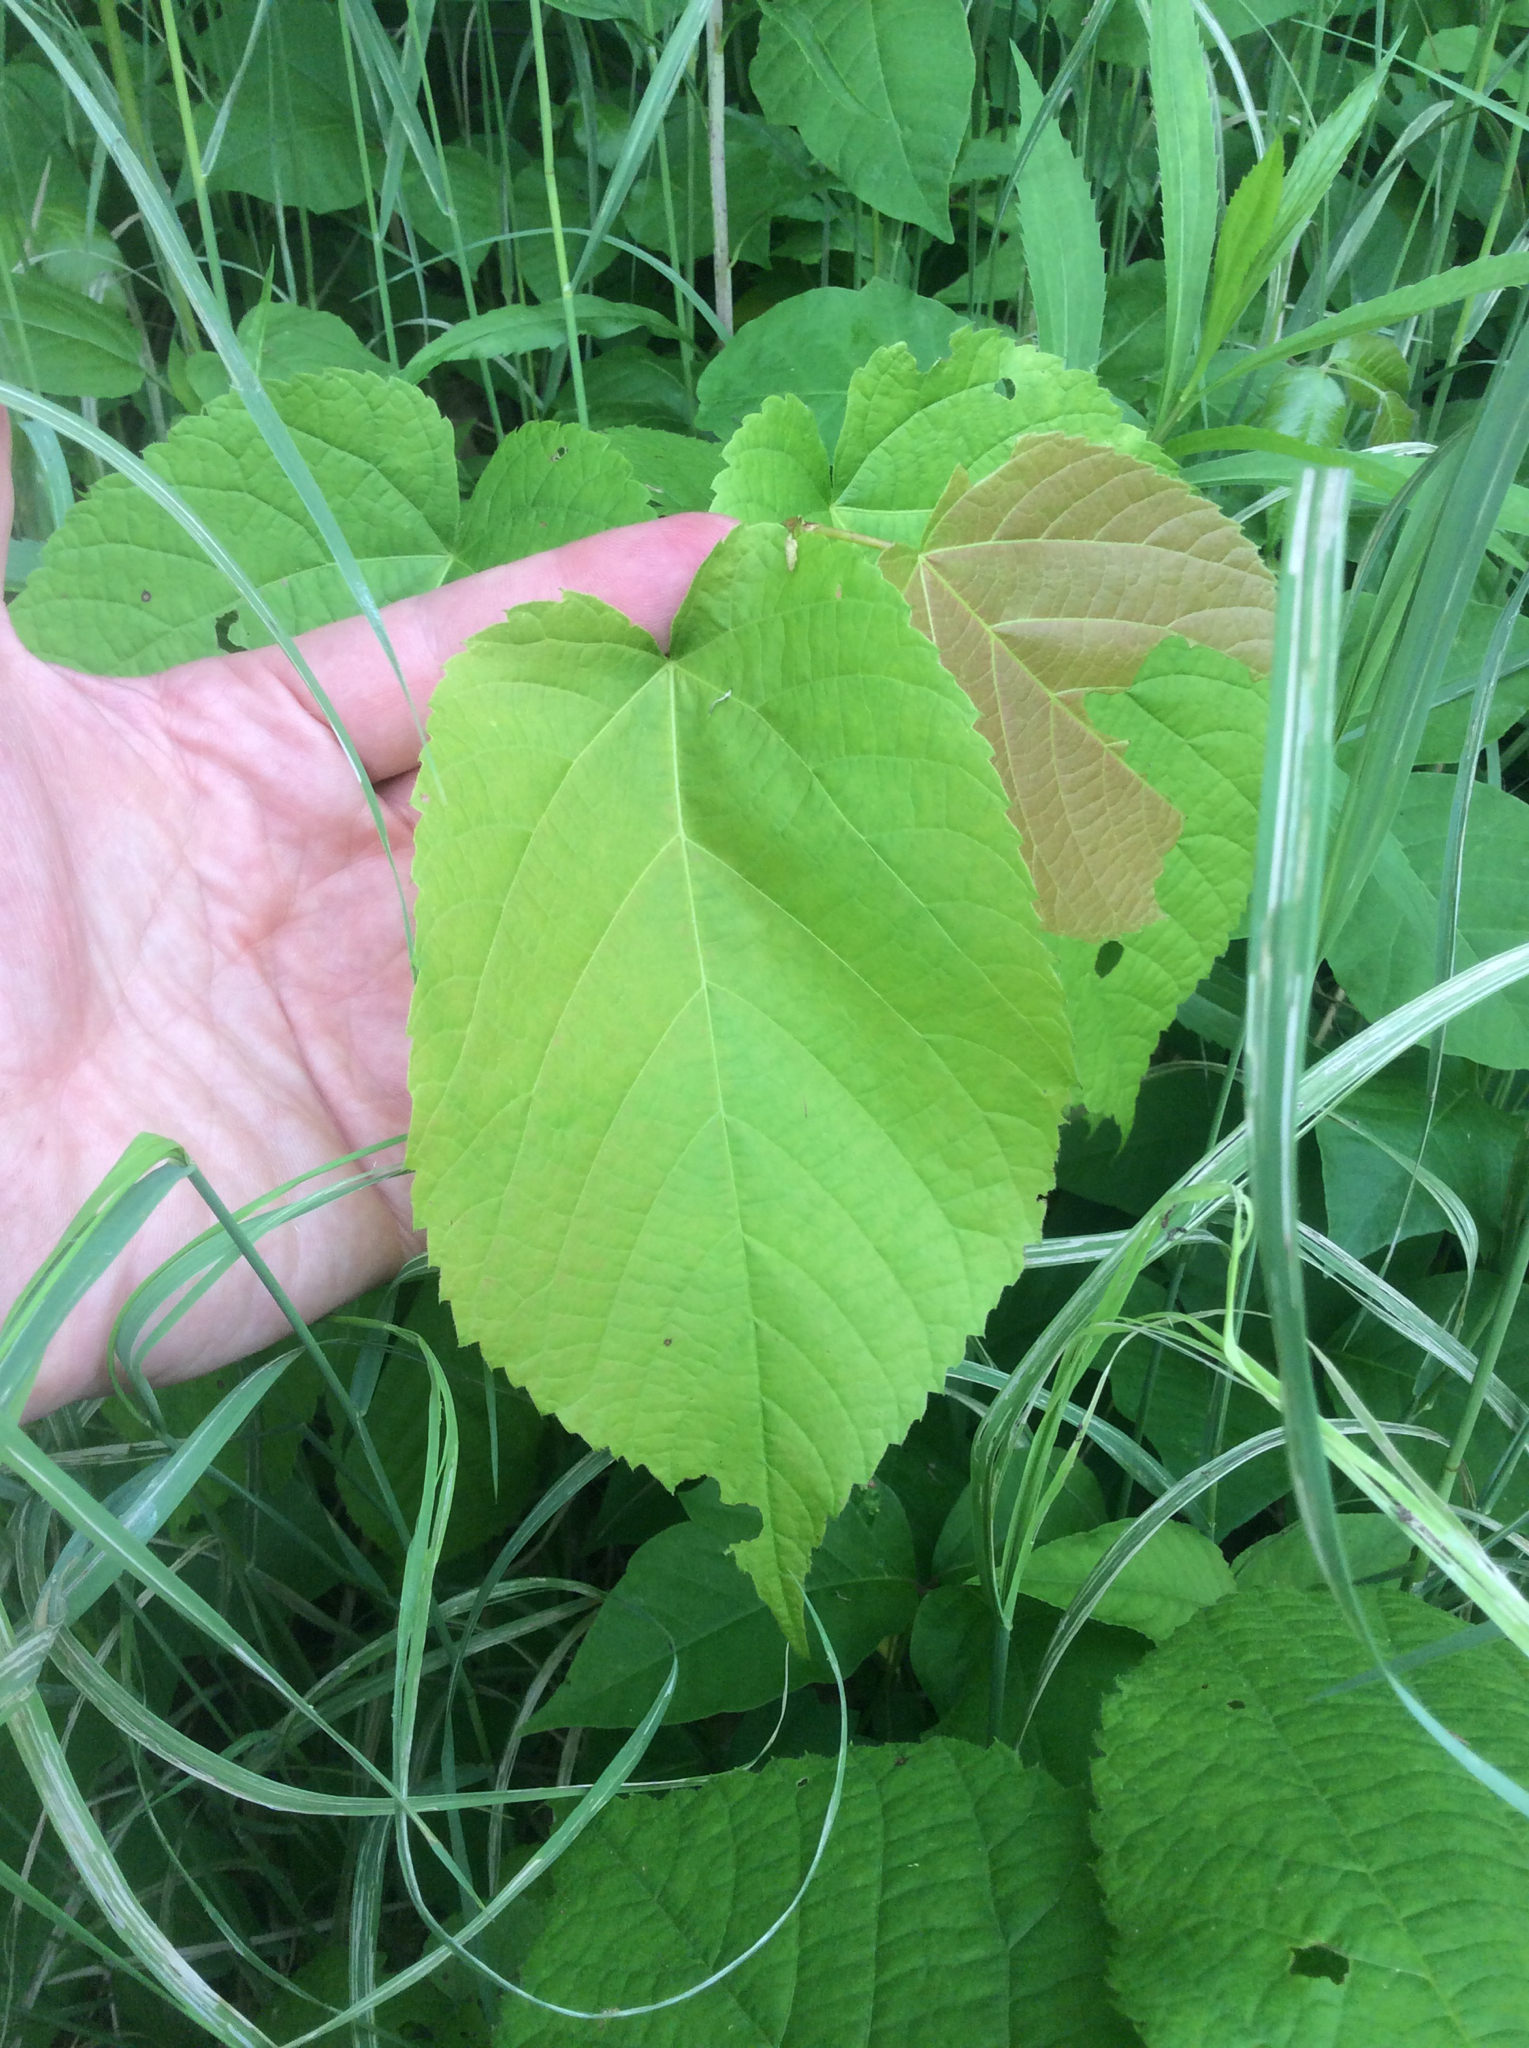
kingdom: Plantae
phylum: Tracheophyta
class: Magnoliopsida
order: Malvales
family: Malvaceae
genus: Tilia
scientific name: Tilia americana
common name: Basswood
